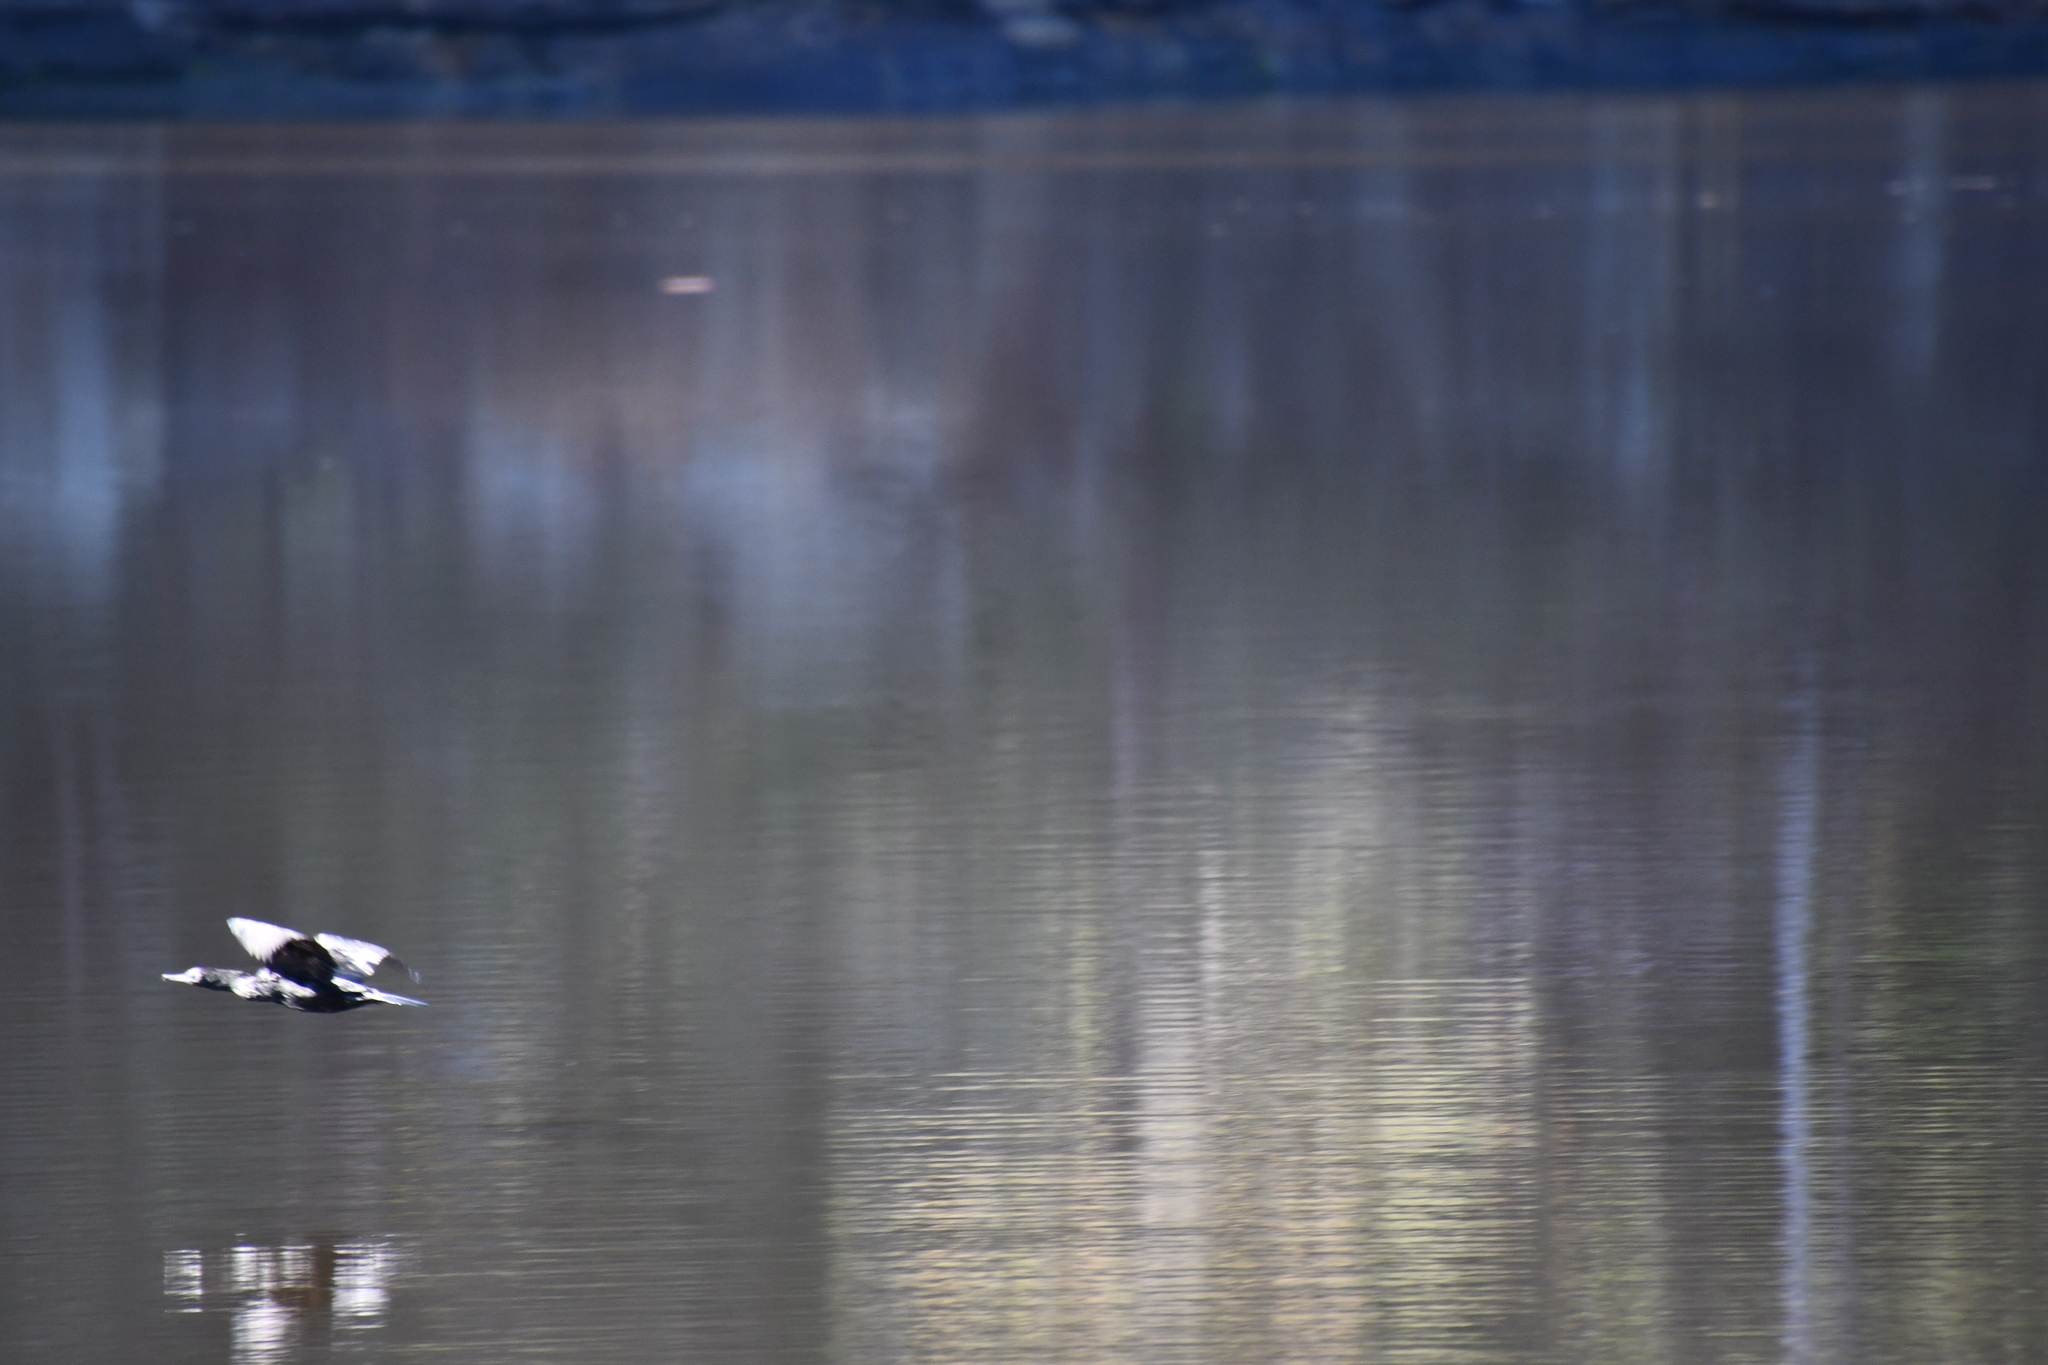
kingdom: Animalia
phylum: Chordata
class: Aves
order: Suliformes
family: Phalacrocoracidae
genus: Phalacrocorax
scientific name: Phalacrocorax sulcirostris
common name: Little black cormorant
